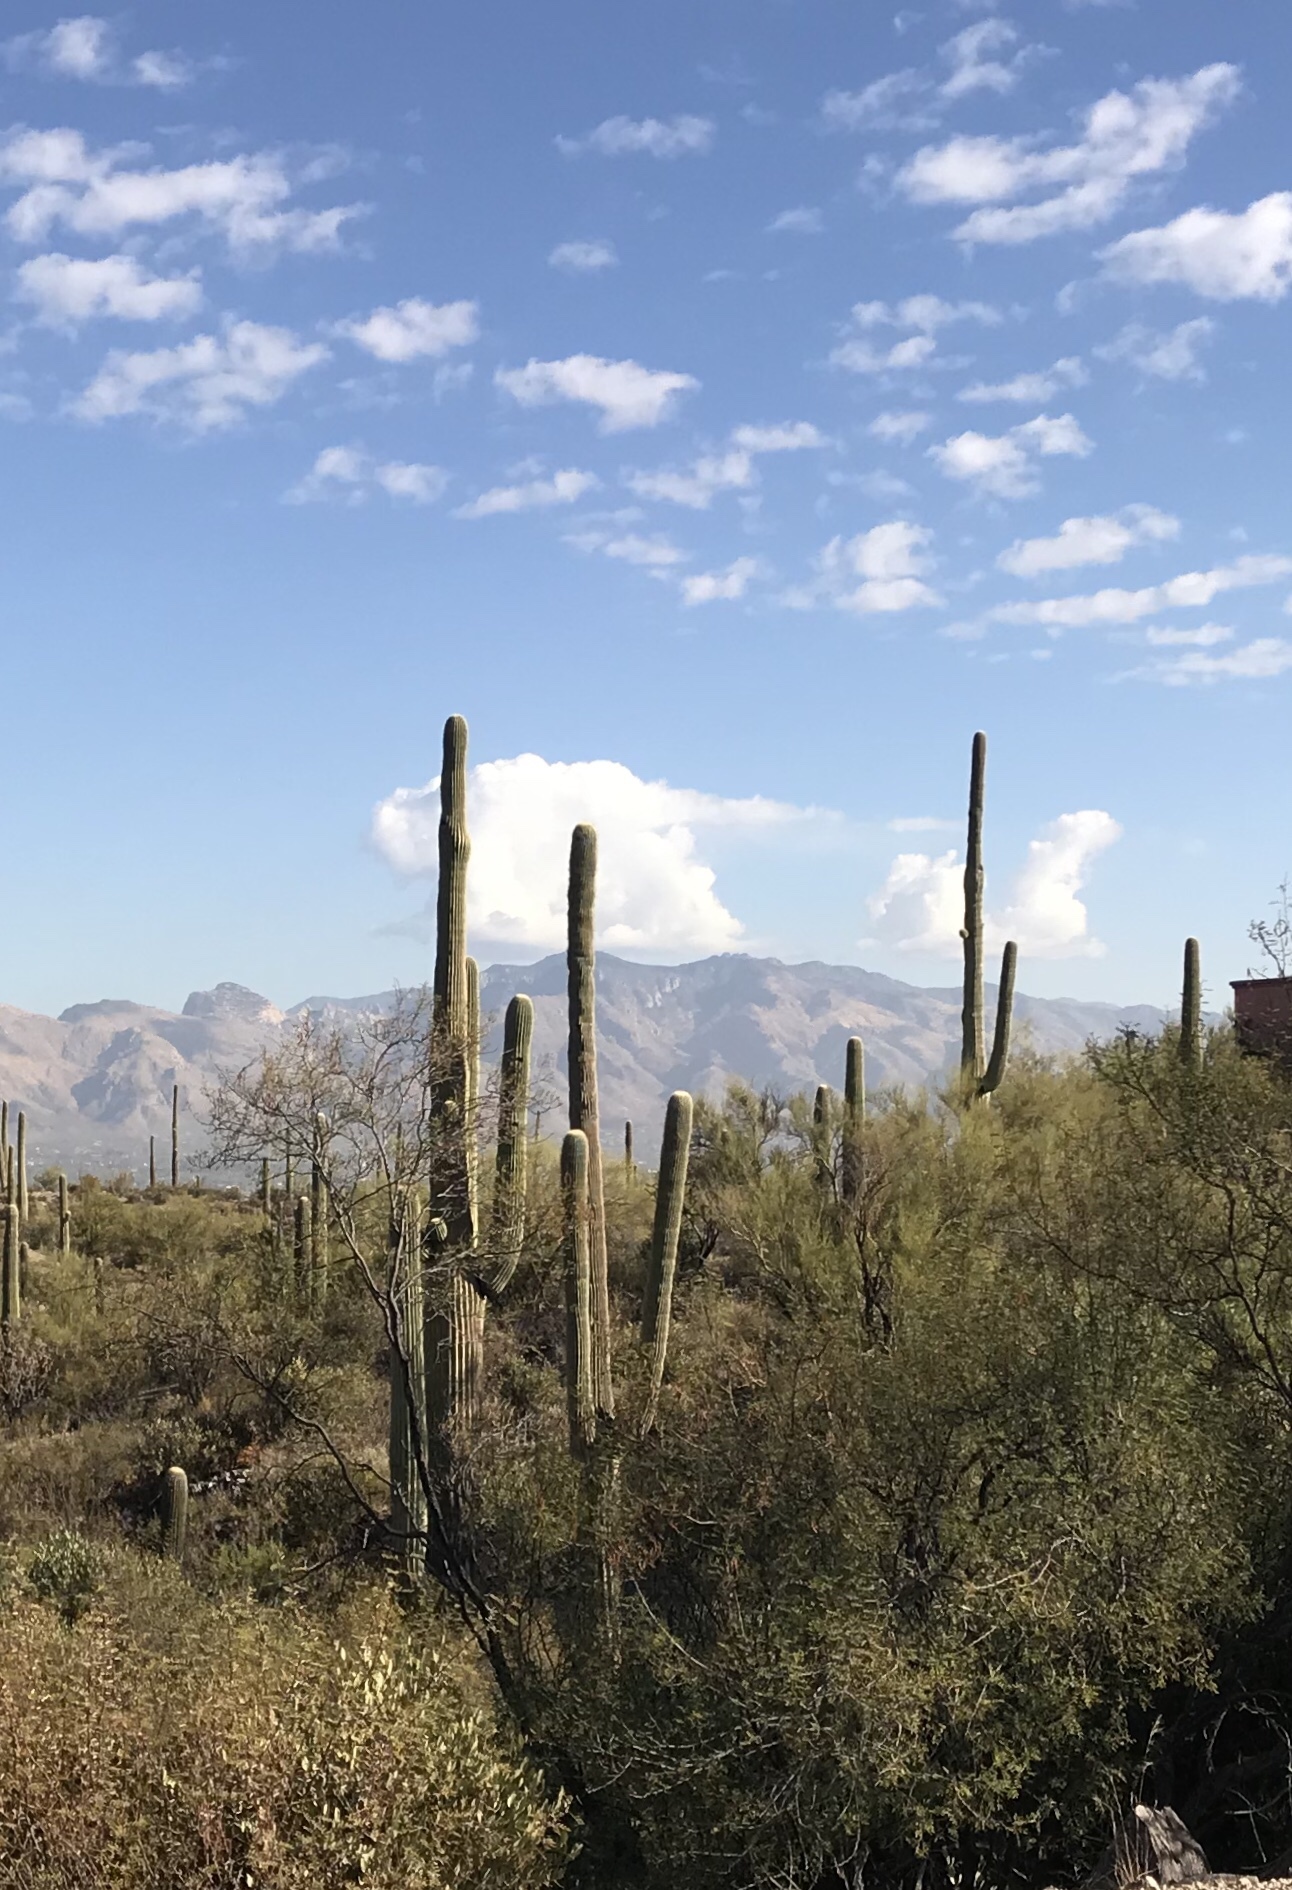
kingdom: Plantae
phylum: Tracheophyta
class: Magnoliopsida
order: Caryophyllales
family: Cactaceae
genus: Carnegiea
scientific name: Carnegiea gigantea
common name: Saguaro
